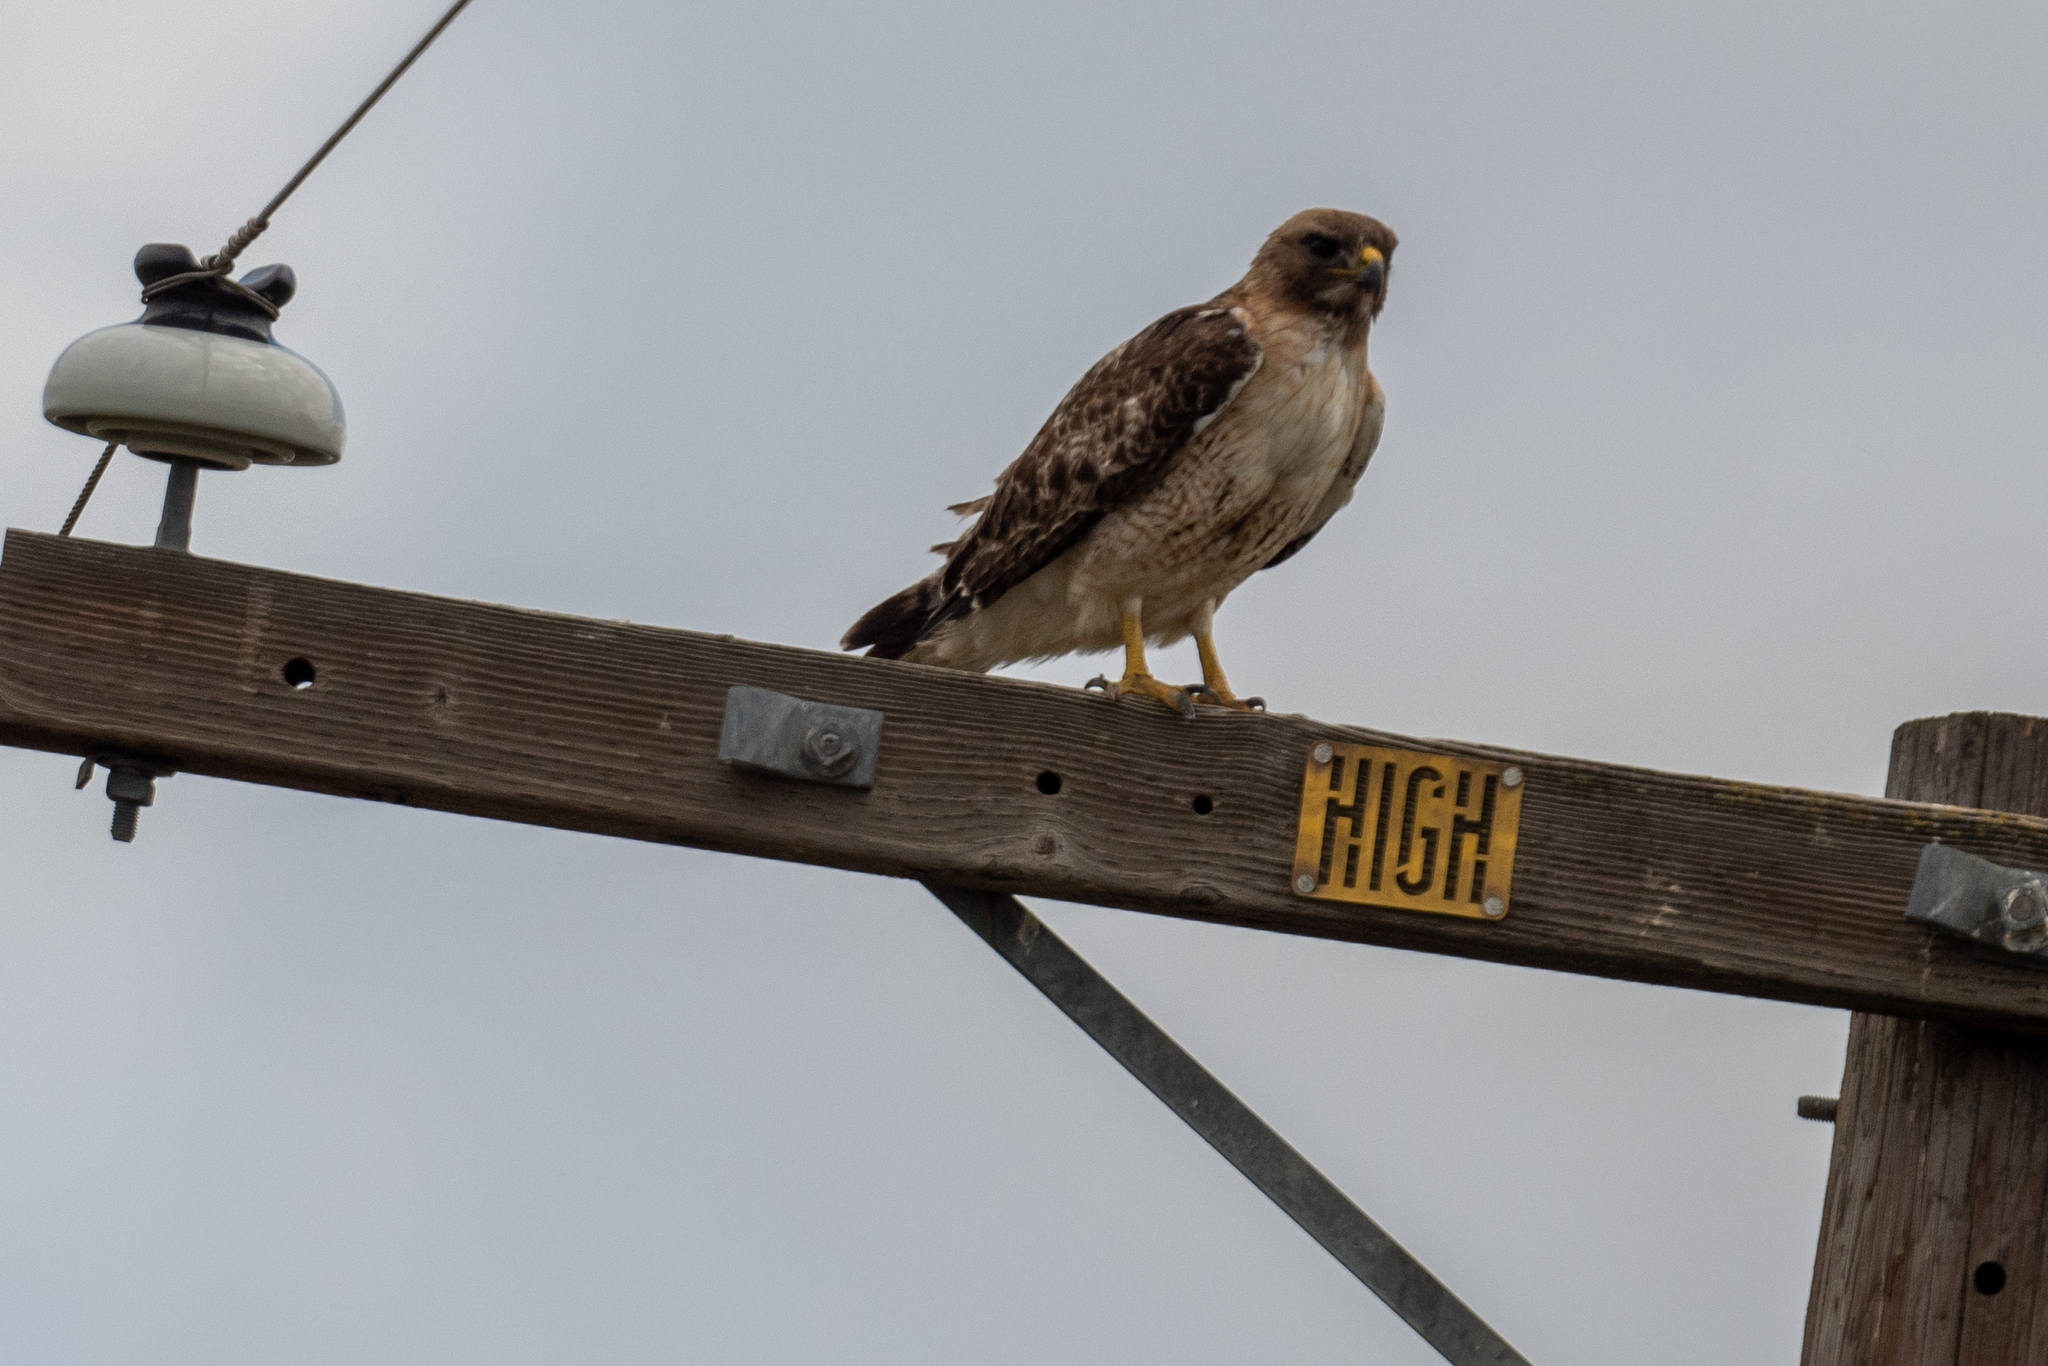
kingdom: Animalia
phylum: Chordata
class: Aves
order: Accipitriformes
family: Accipitridae
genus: Buteo
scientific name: Buteo jamaicensis
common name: Red-tailed hawk
